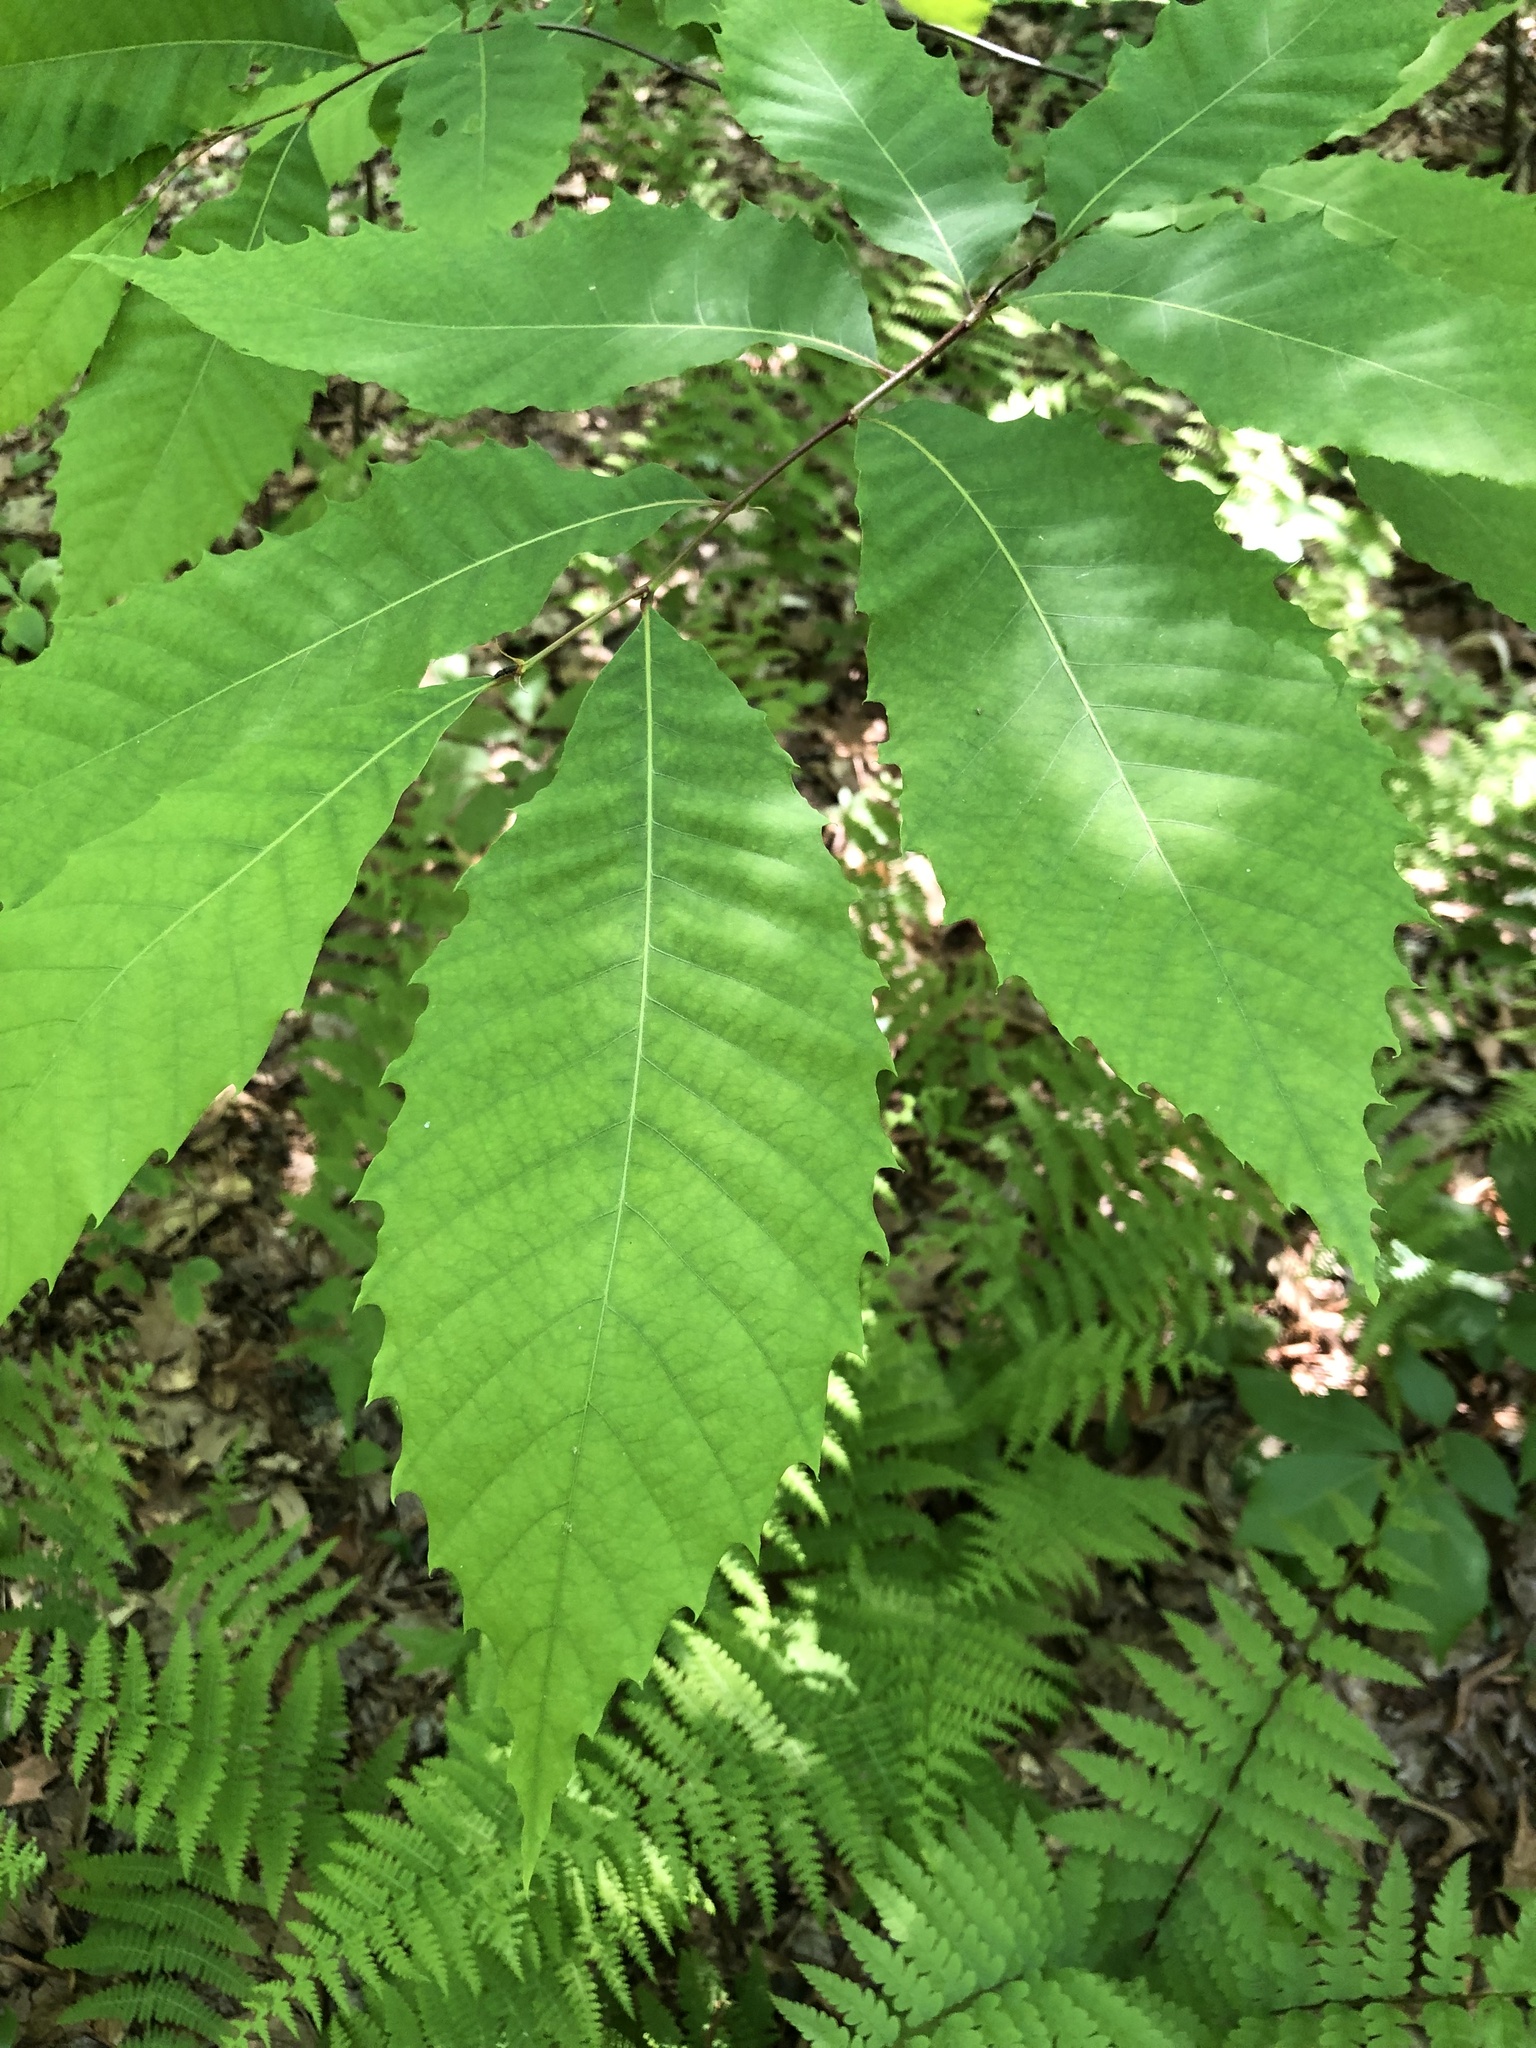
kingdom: Plantae
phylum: Tracheophyta
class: Magnoliopsida
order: Fagales
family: Fagaceae
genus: Castanea
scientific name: Castanea dentata
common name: American chestnut
